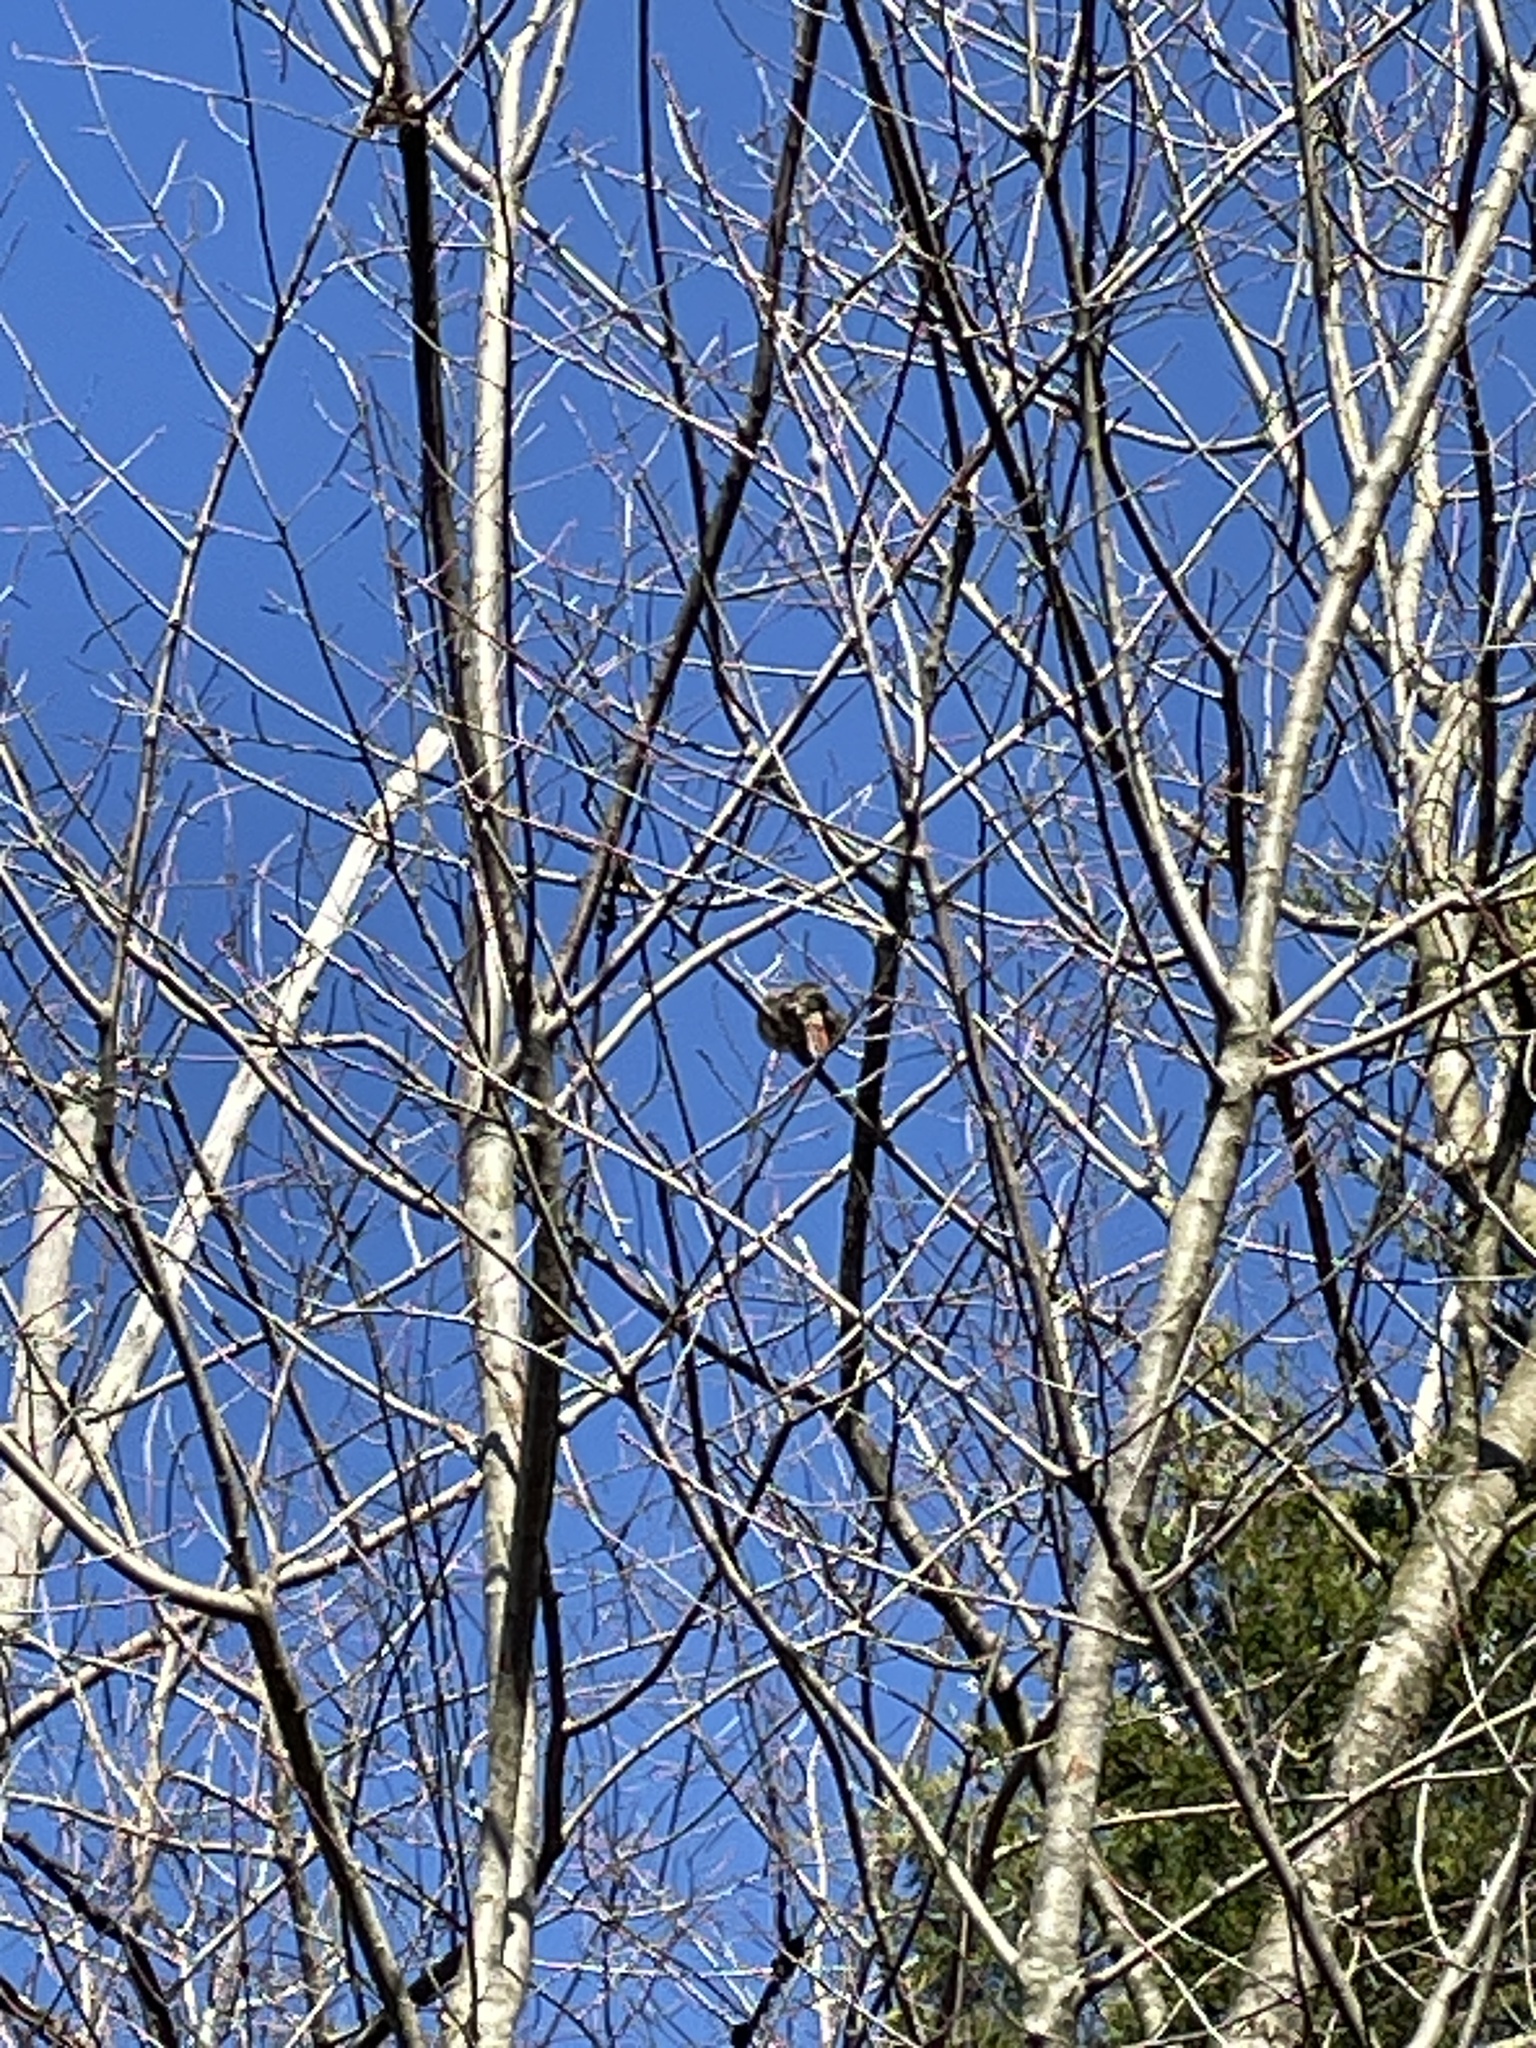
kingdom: Animalia
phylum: Chordata
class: Aves
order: Passeriformes
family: Cardinalidae
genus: Cardinalis
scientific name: Cardinalis cardinalis
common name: Northern cardinal
